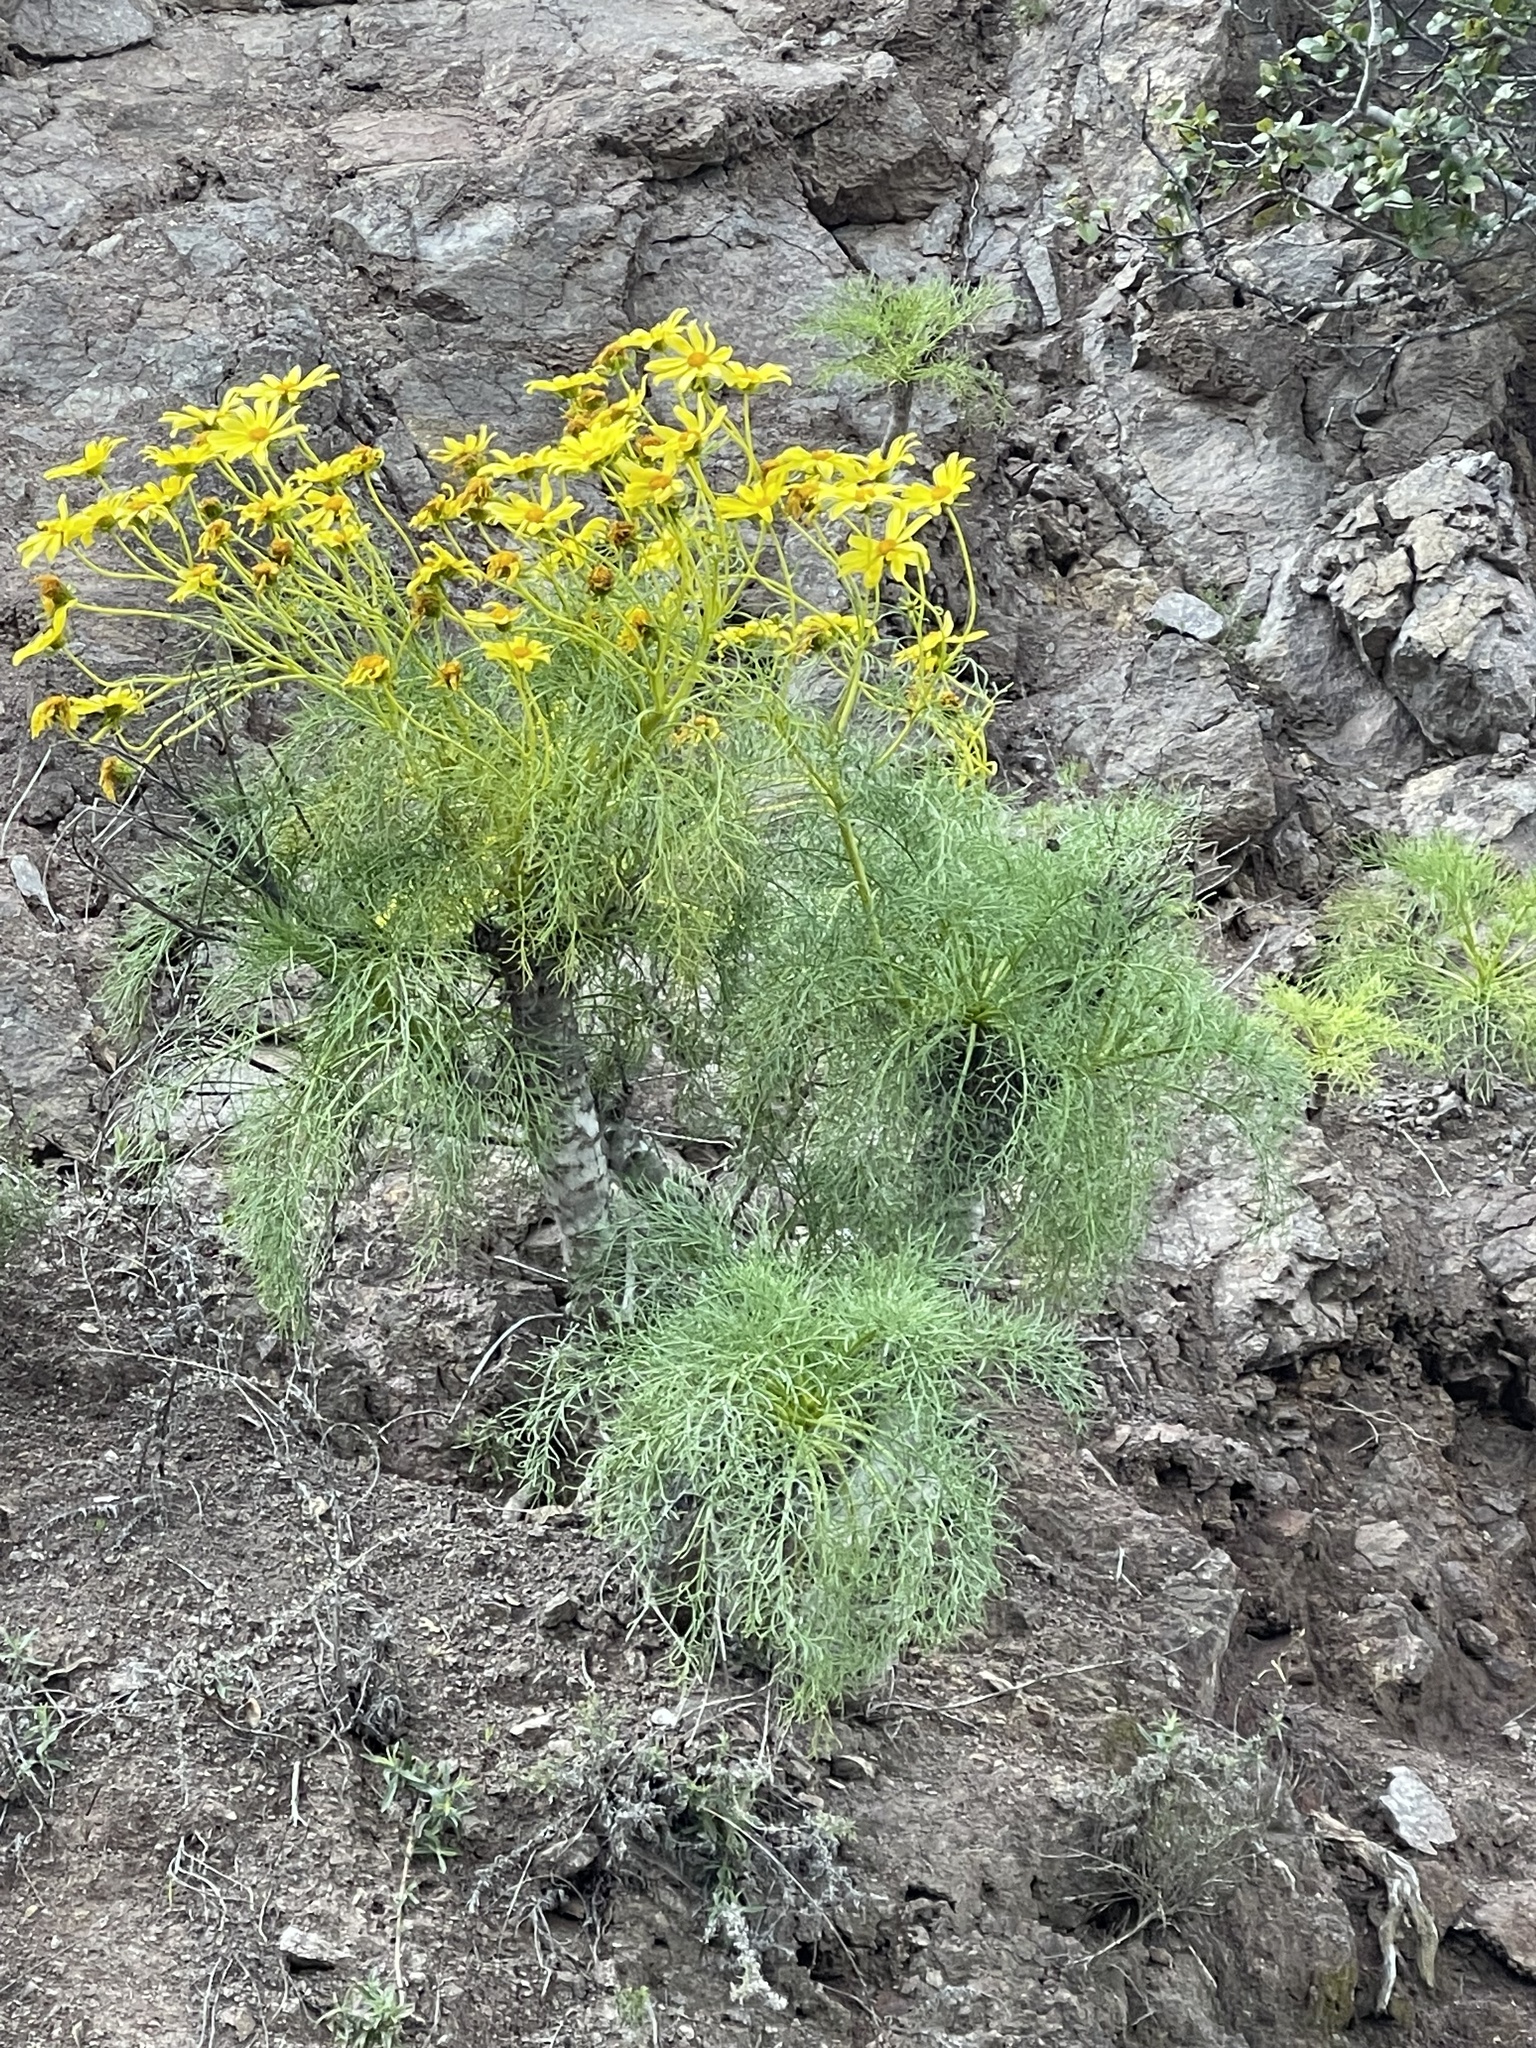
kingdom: Plantae
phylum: Tracheophyta
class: Magnoliopsida
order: Asterales
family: Asteraceae
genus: Coreopsis
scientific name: Coreopsis gigantea
